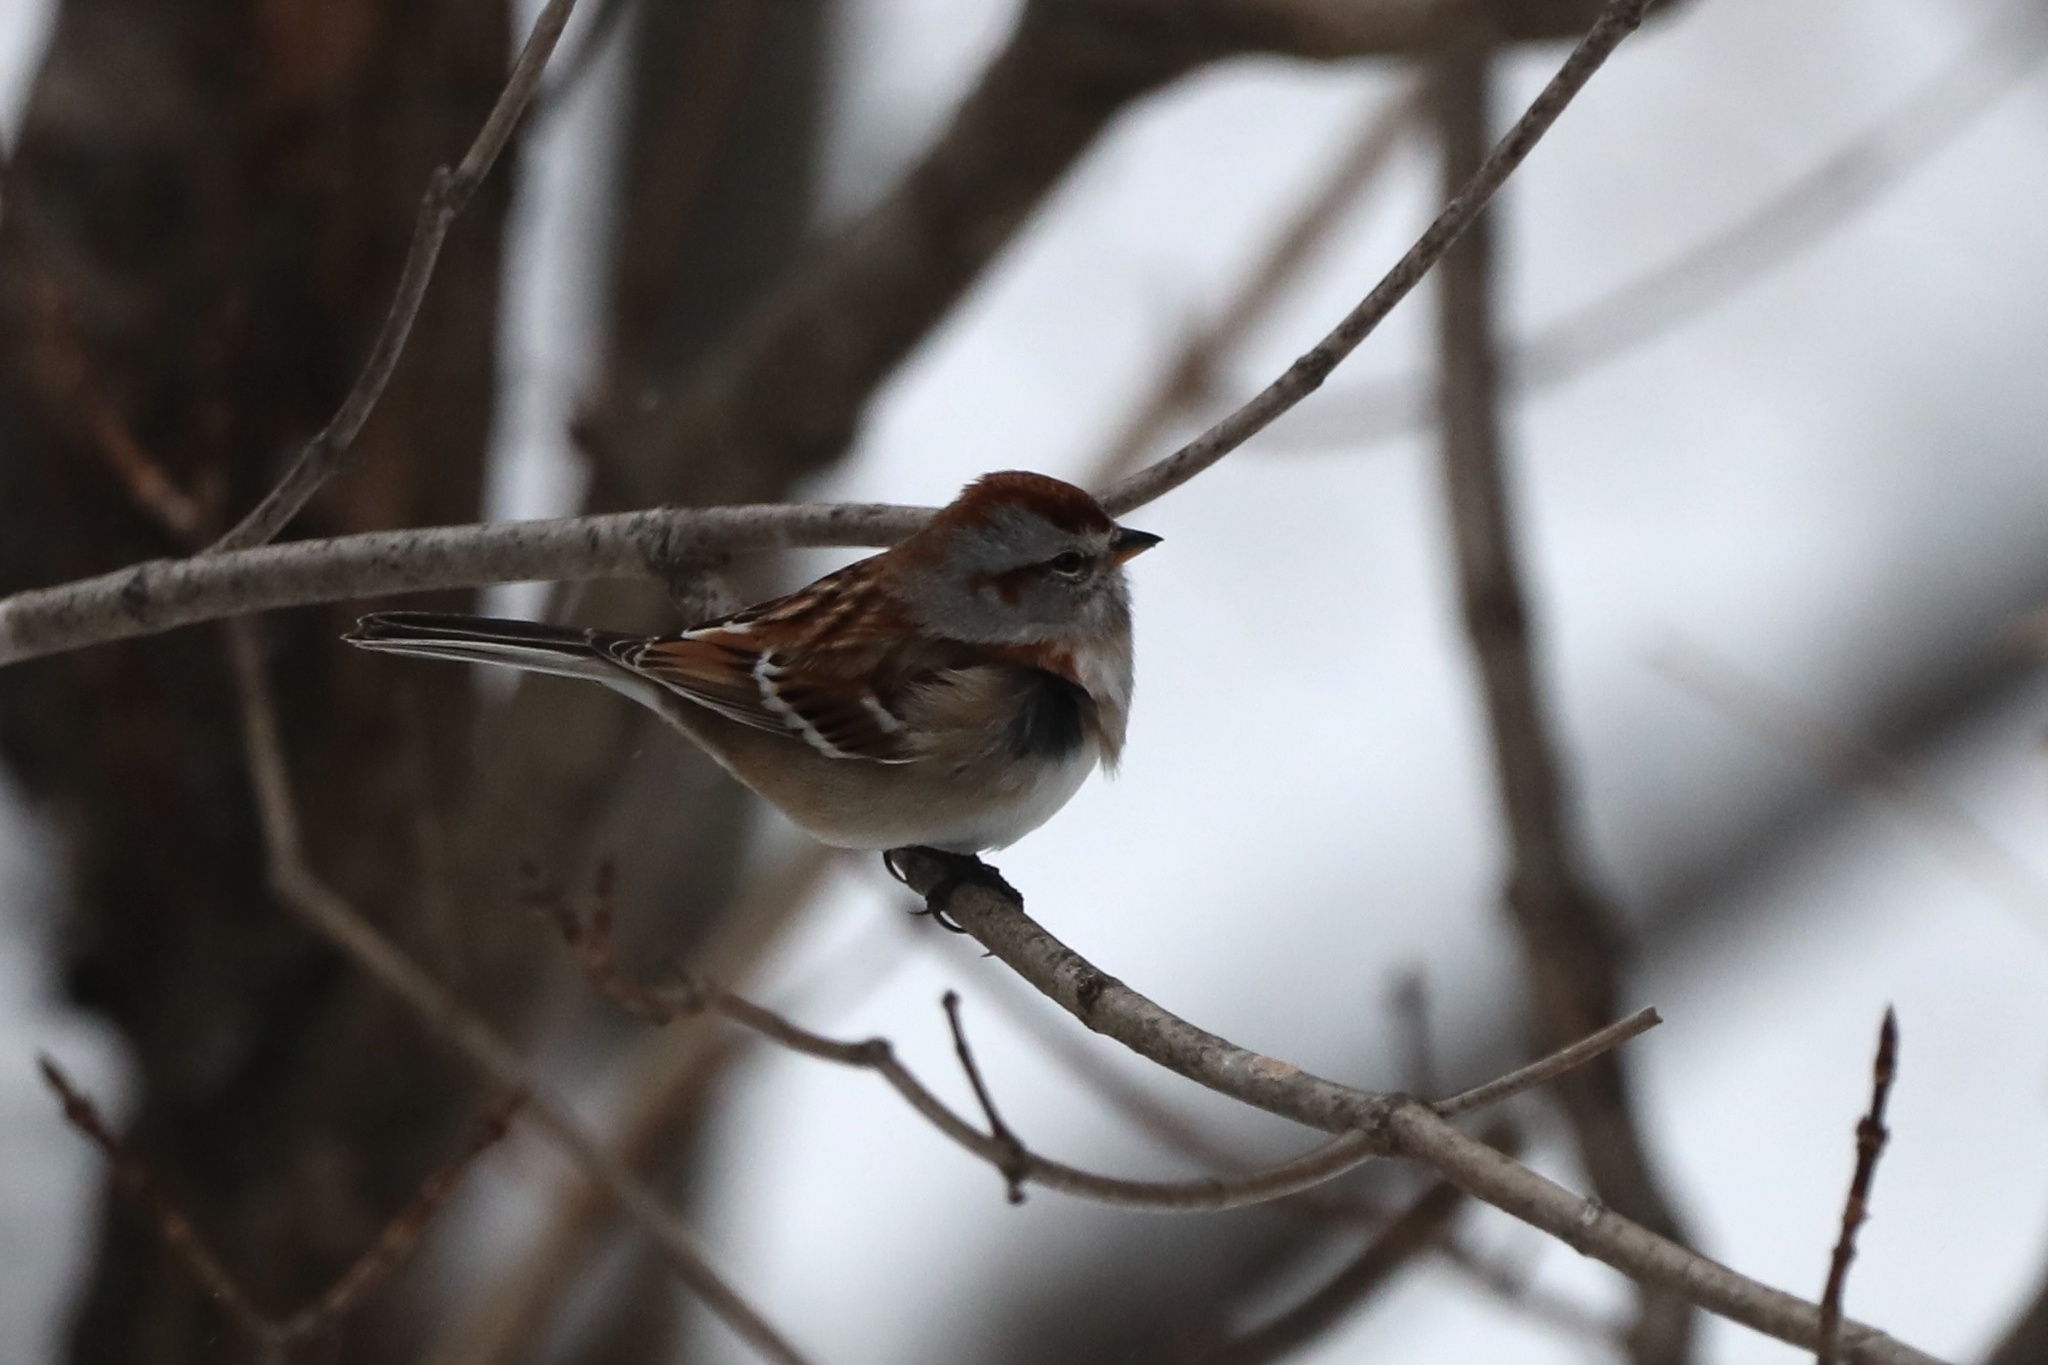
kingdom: Animalia
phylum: Chordata
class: Aves
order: Passeriformes
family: Passerellidae
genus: Spizelloides
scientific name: Spizelloides arborea
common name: American tree sparrow
